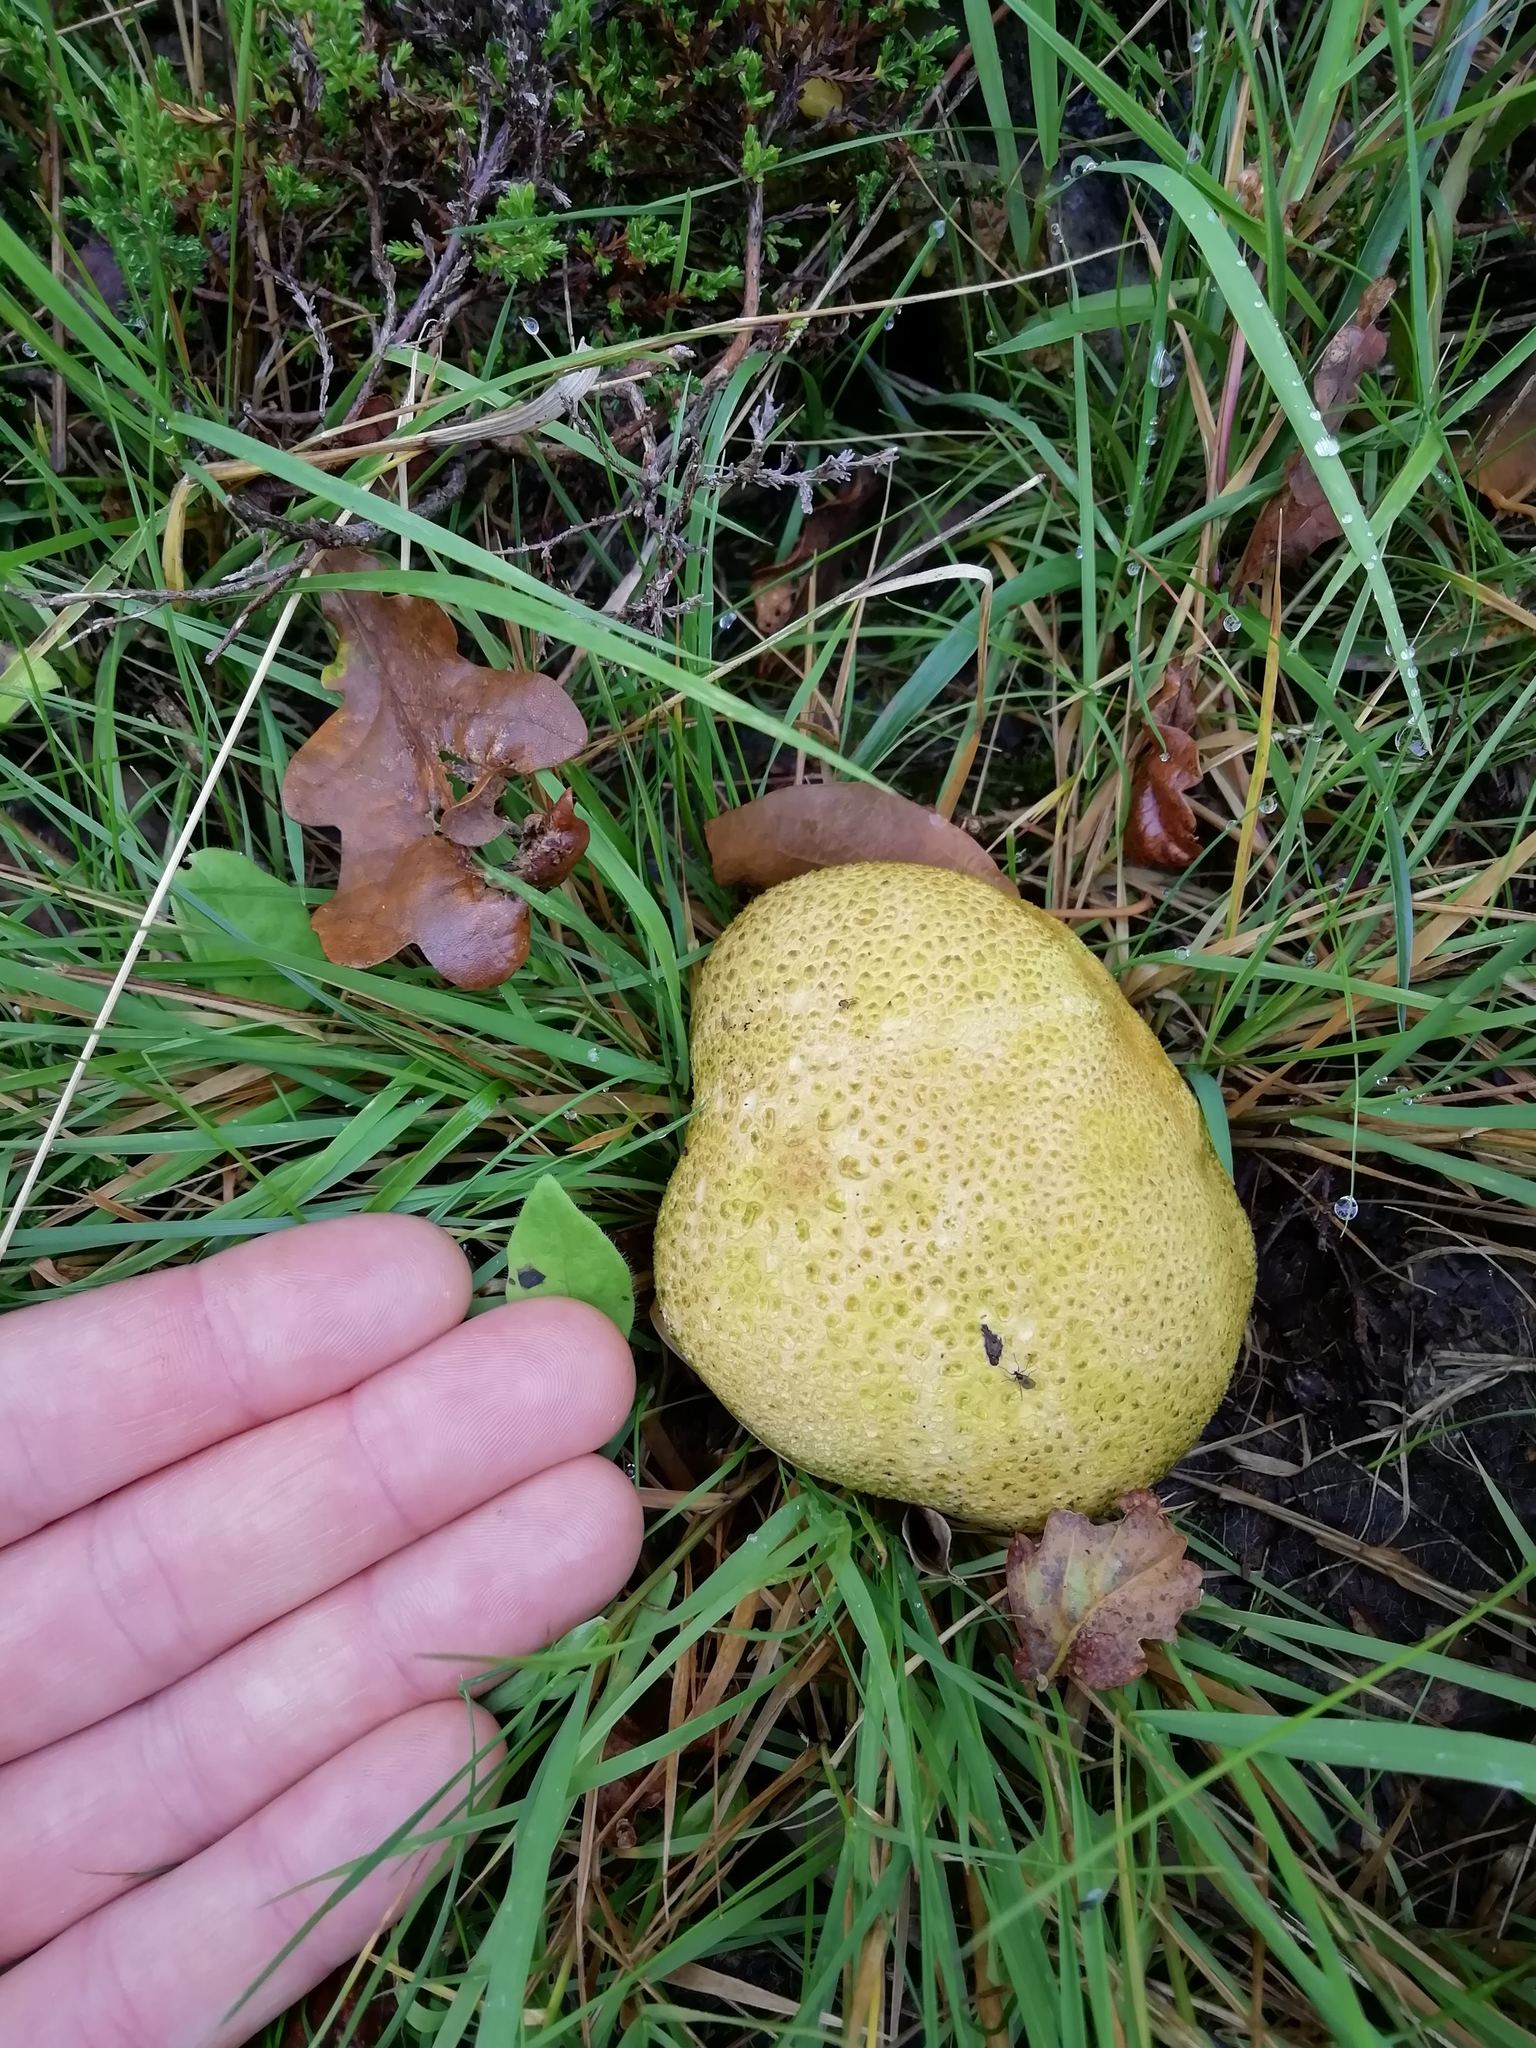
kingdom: Fungi
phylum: Basidiomycota
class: Agaricomycetes
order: Boletales
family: Sclerodermataceae
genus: Scleroderma
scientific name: Scleroderma citrinum
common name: Common earthball
